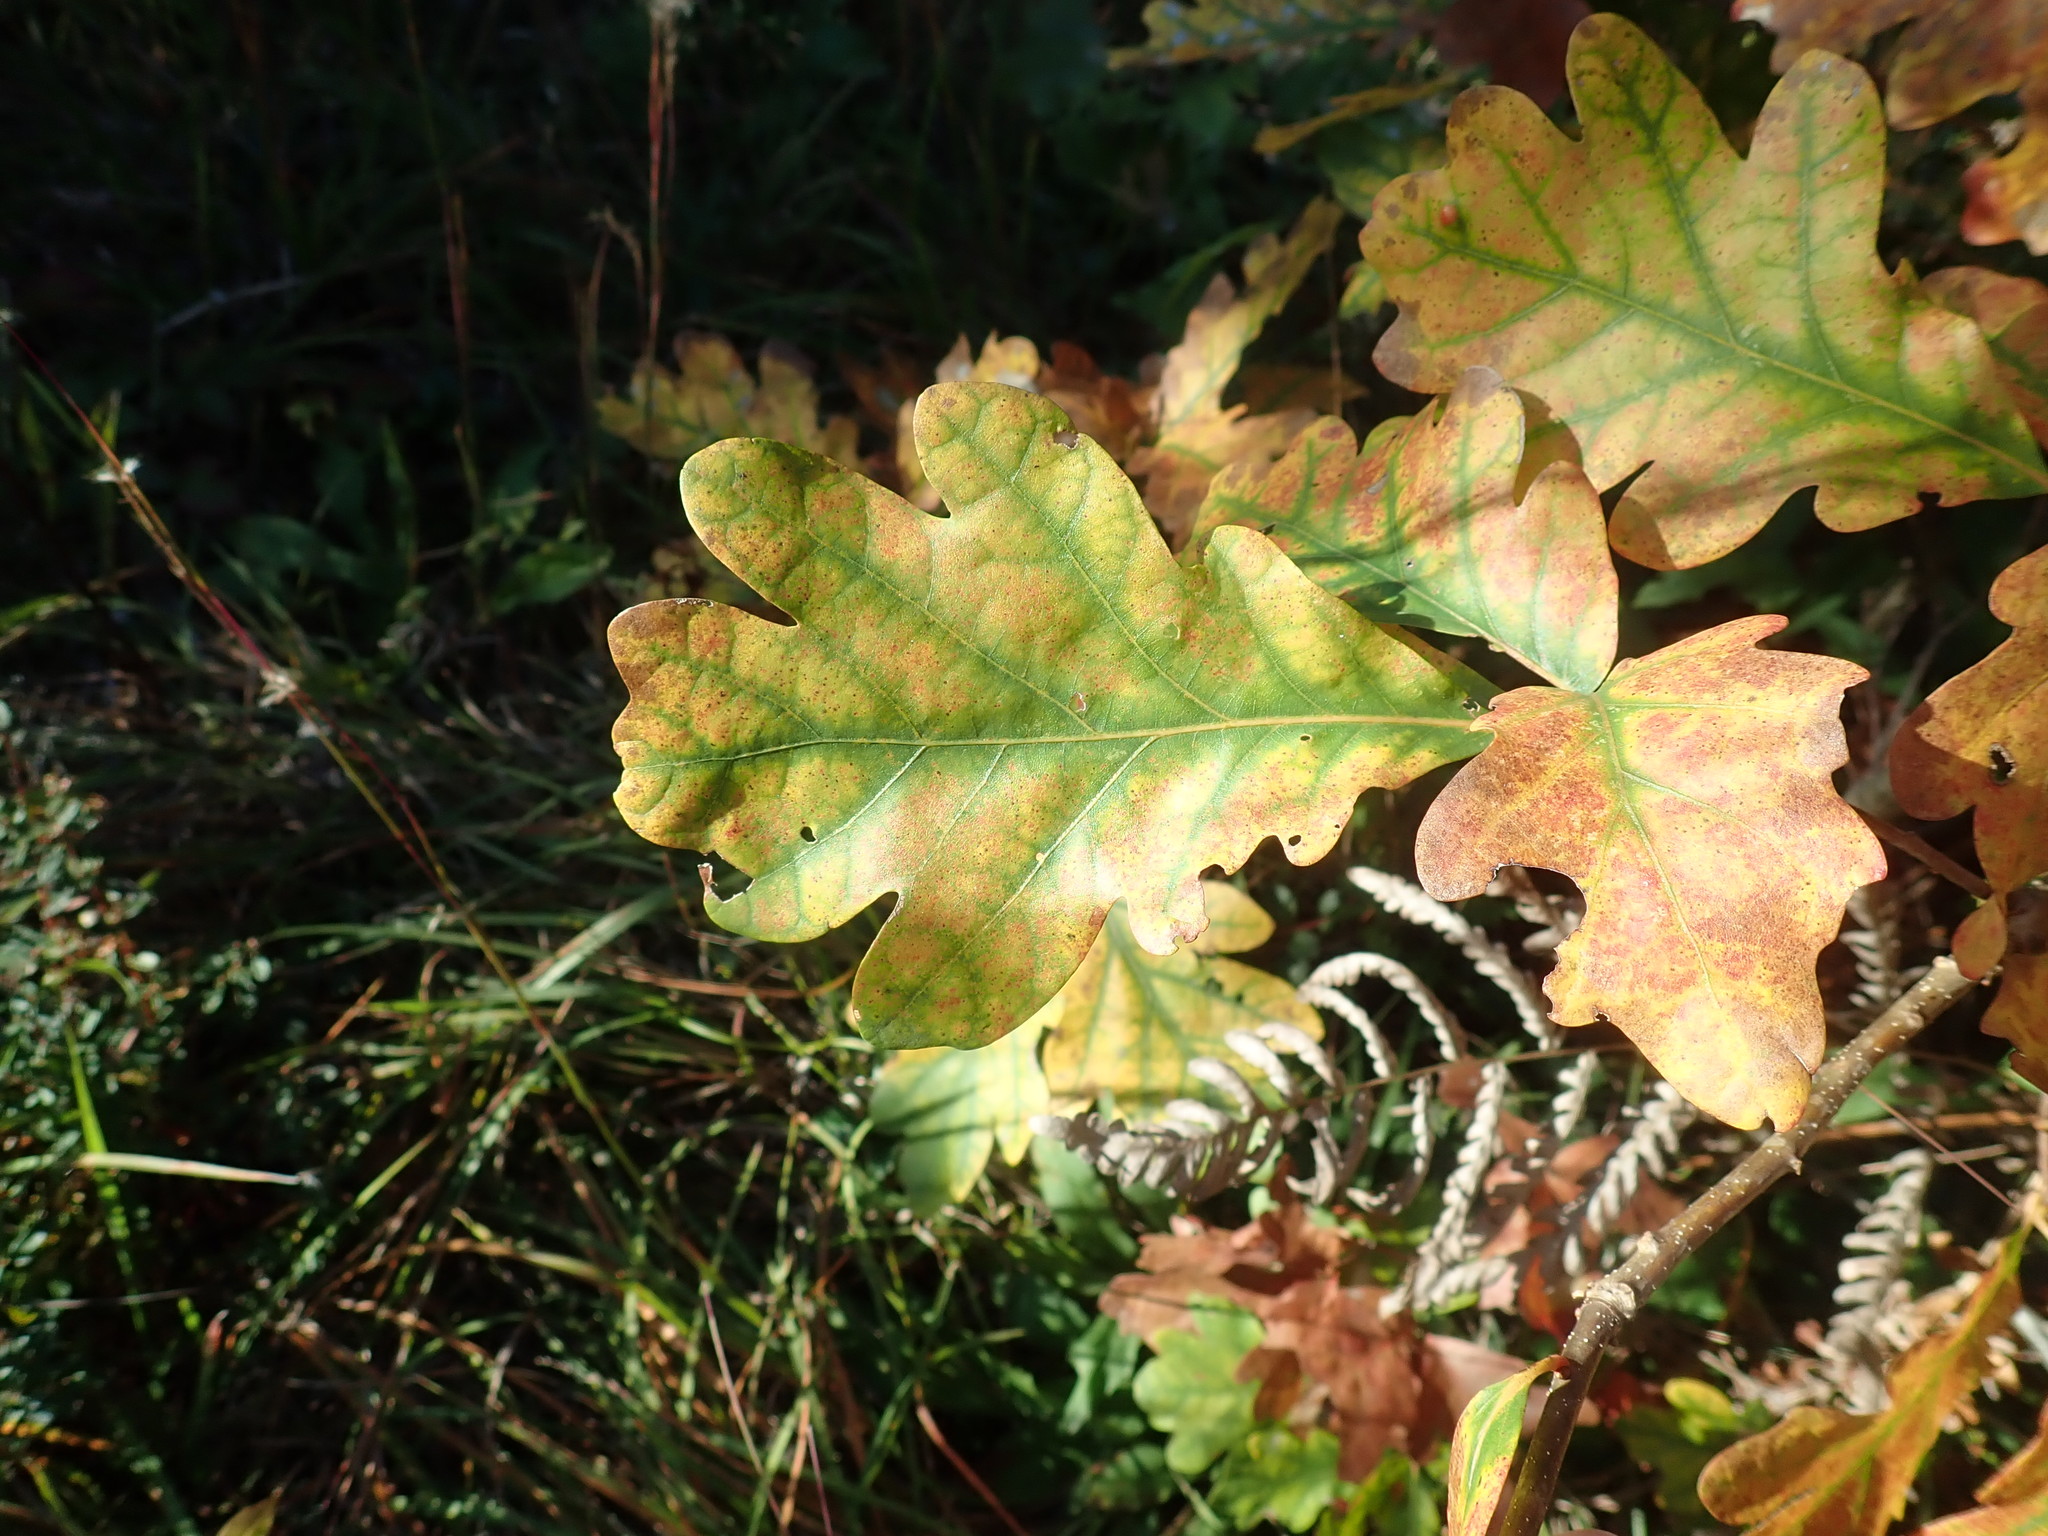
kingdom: Plantae
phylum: Tracheophyta
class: Magnoliopsida
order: Fagales
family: Fagaceae
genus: Quercus
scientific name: Quercus alba
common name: White oak
